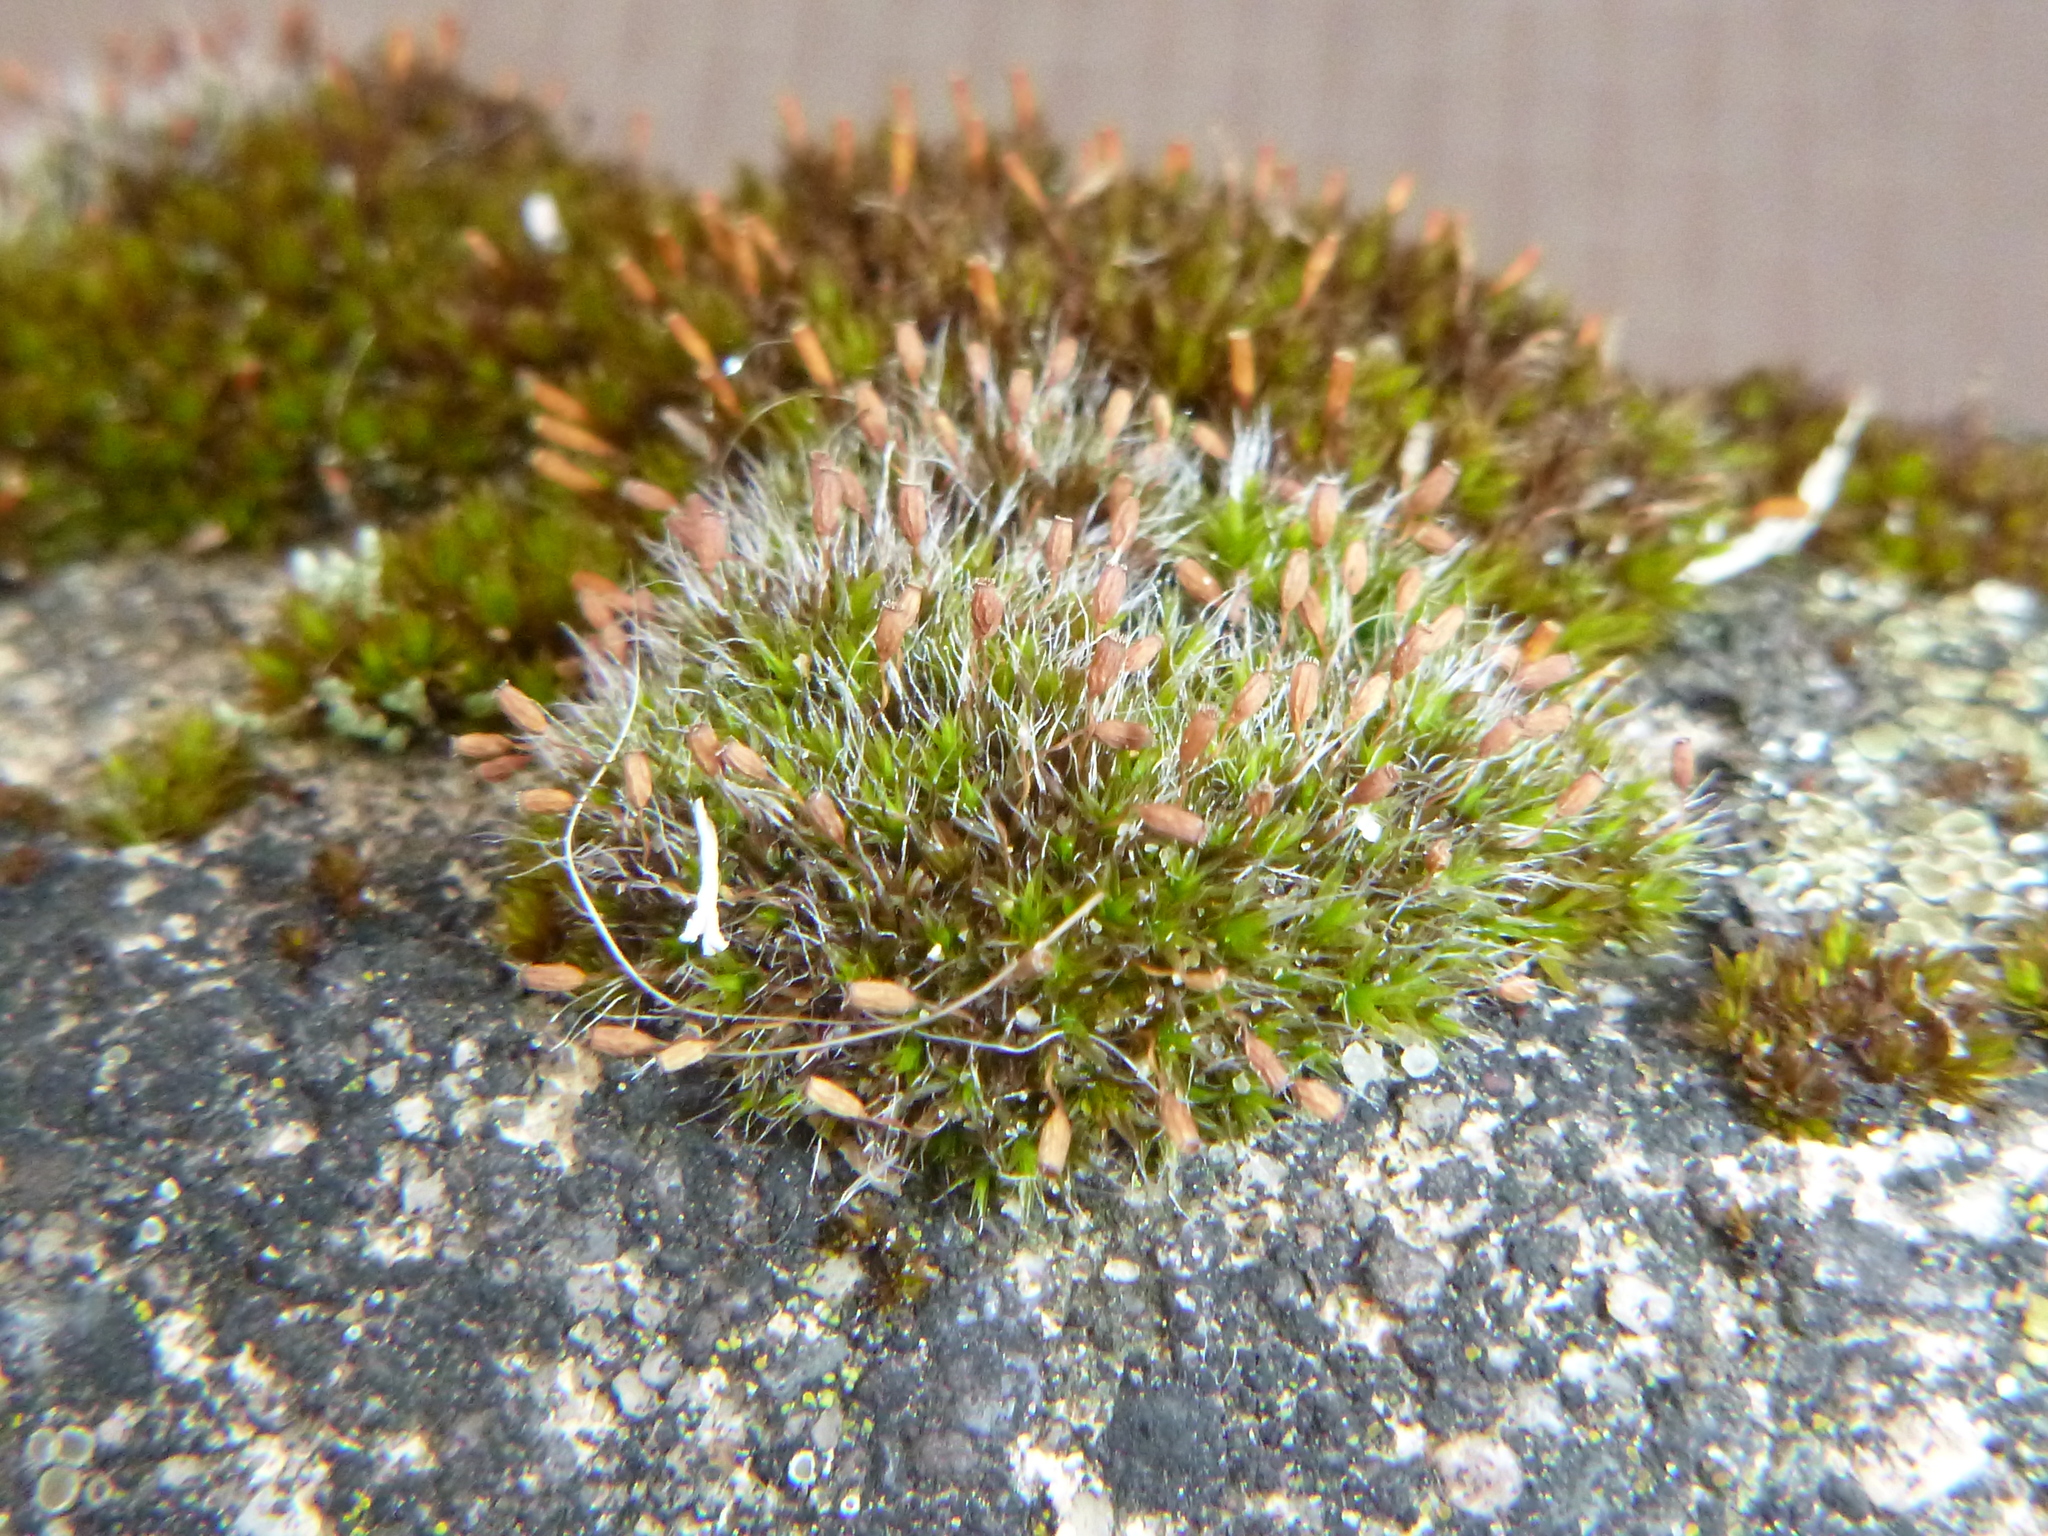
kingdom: Plantae
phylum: Bryophyta
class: Bryopsida
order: Grimmiales
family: Grimmiaceae
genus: Grimmia
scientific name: Grimmia pulvinata
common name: Grey-cushioned grimmia
